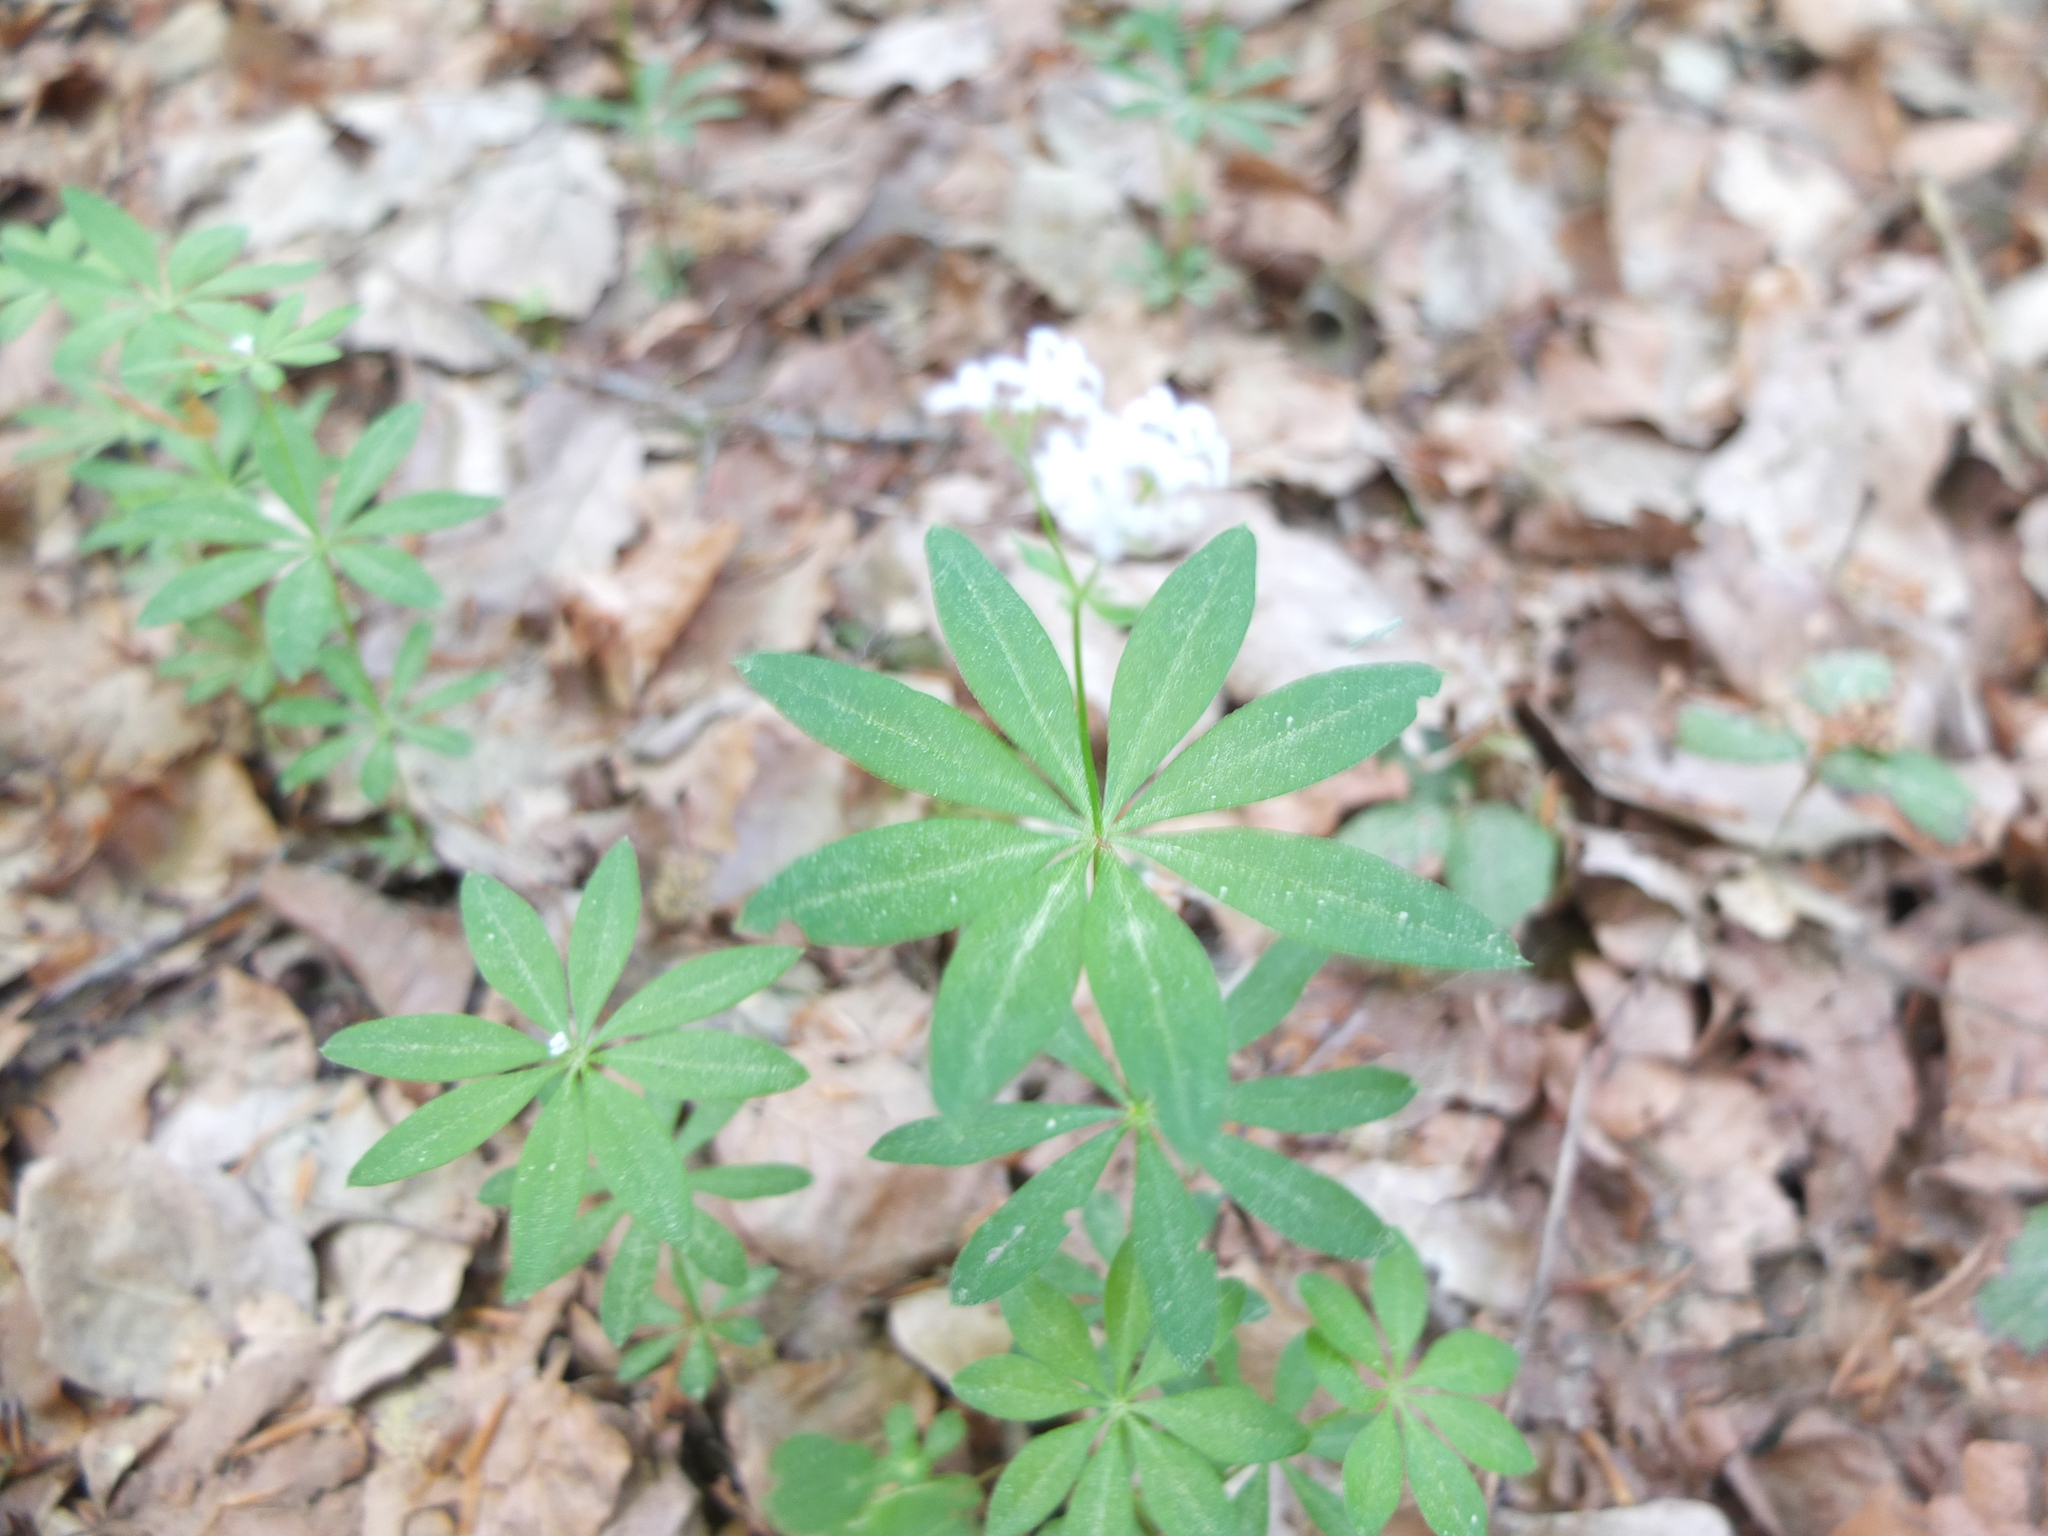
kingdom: Plantae
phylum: Tracheophyta
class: Magnoliopsida
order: Gentianales
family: Rubiaceae
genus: Galium
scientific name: Galium odoratum
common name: Sweet woodruff
